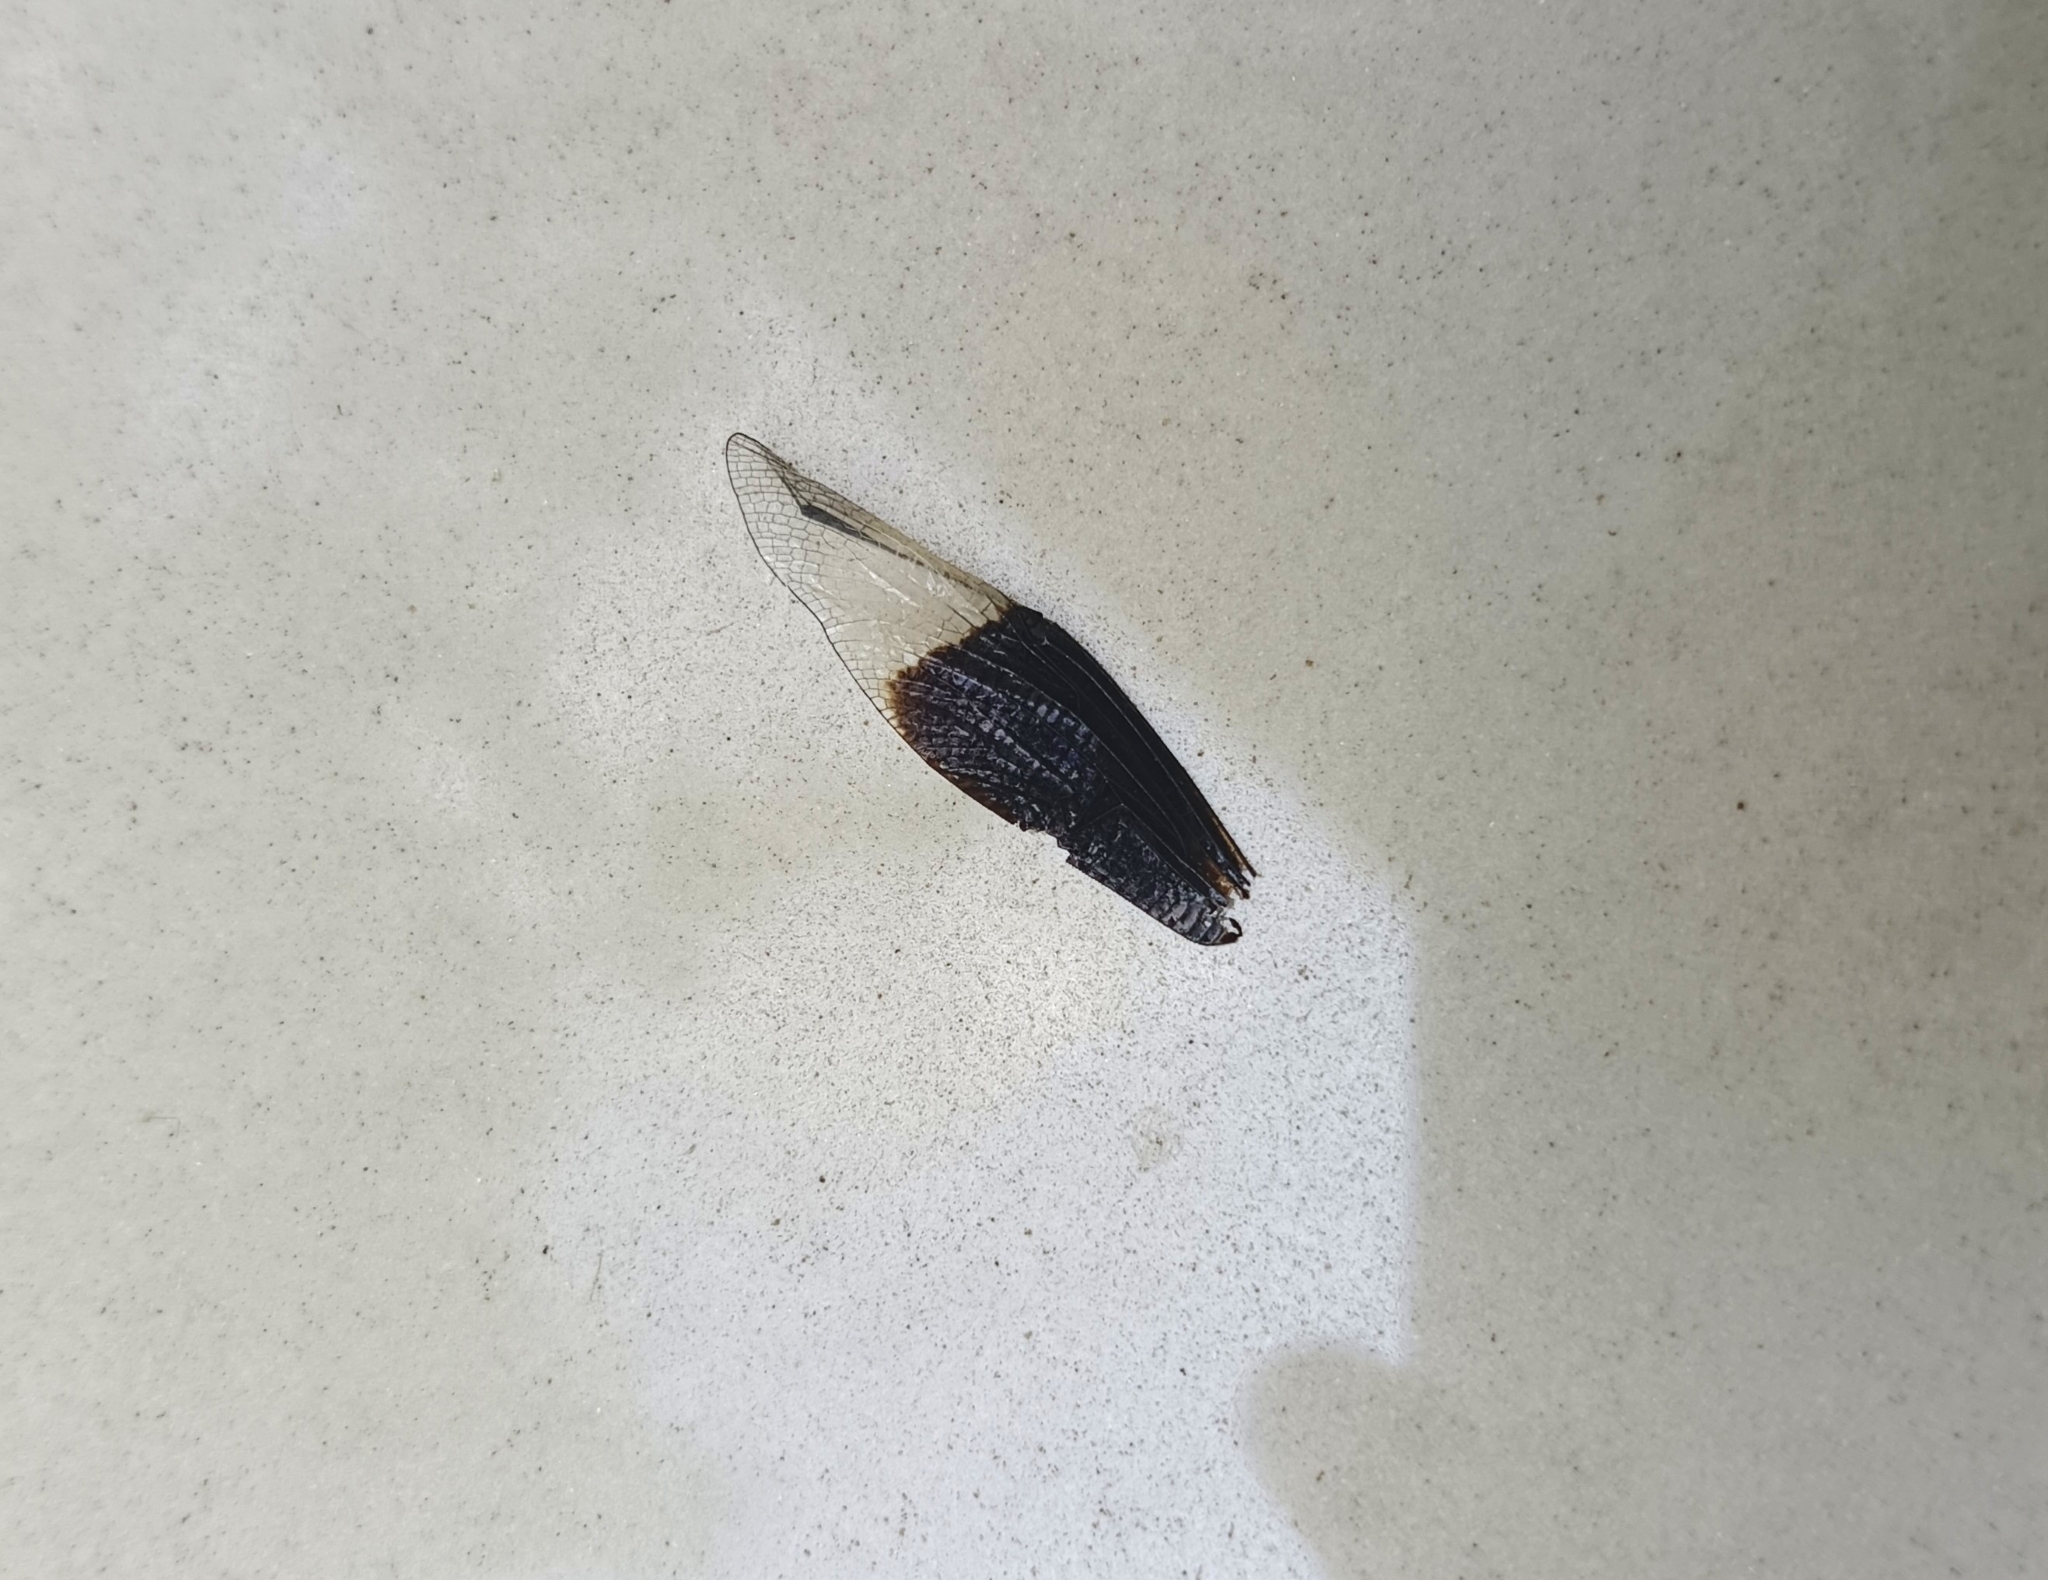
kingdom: Animalia
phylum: Arthropoda
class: Insecta
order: Odonata
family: Libellulidae
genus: Neurothemis
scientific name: Neurothemis tullia
